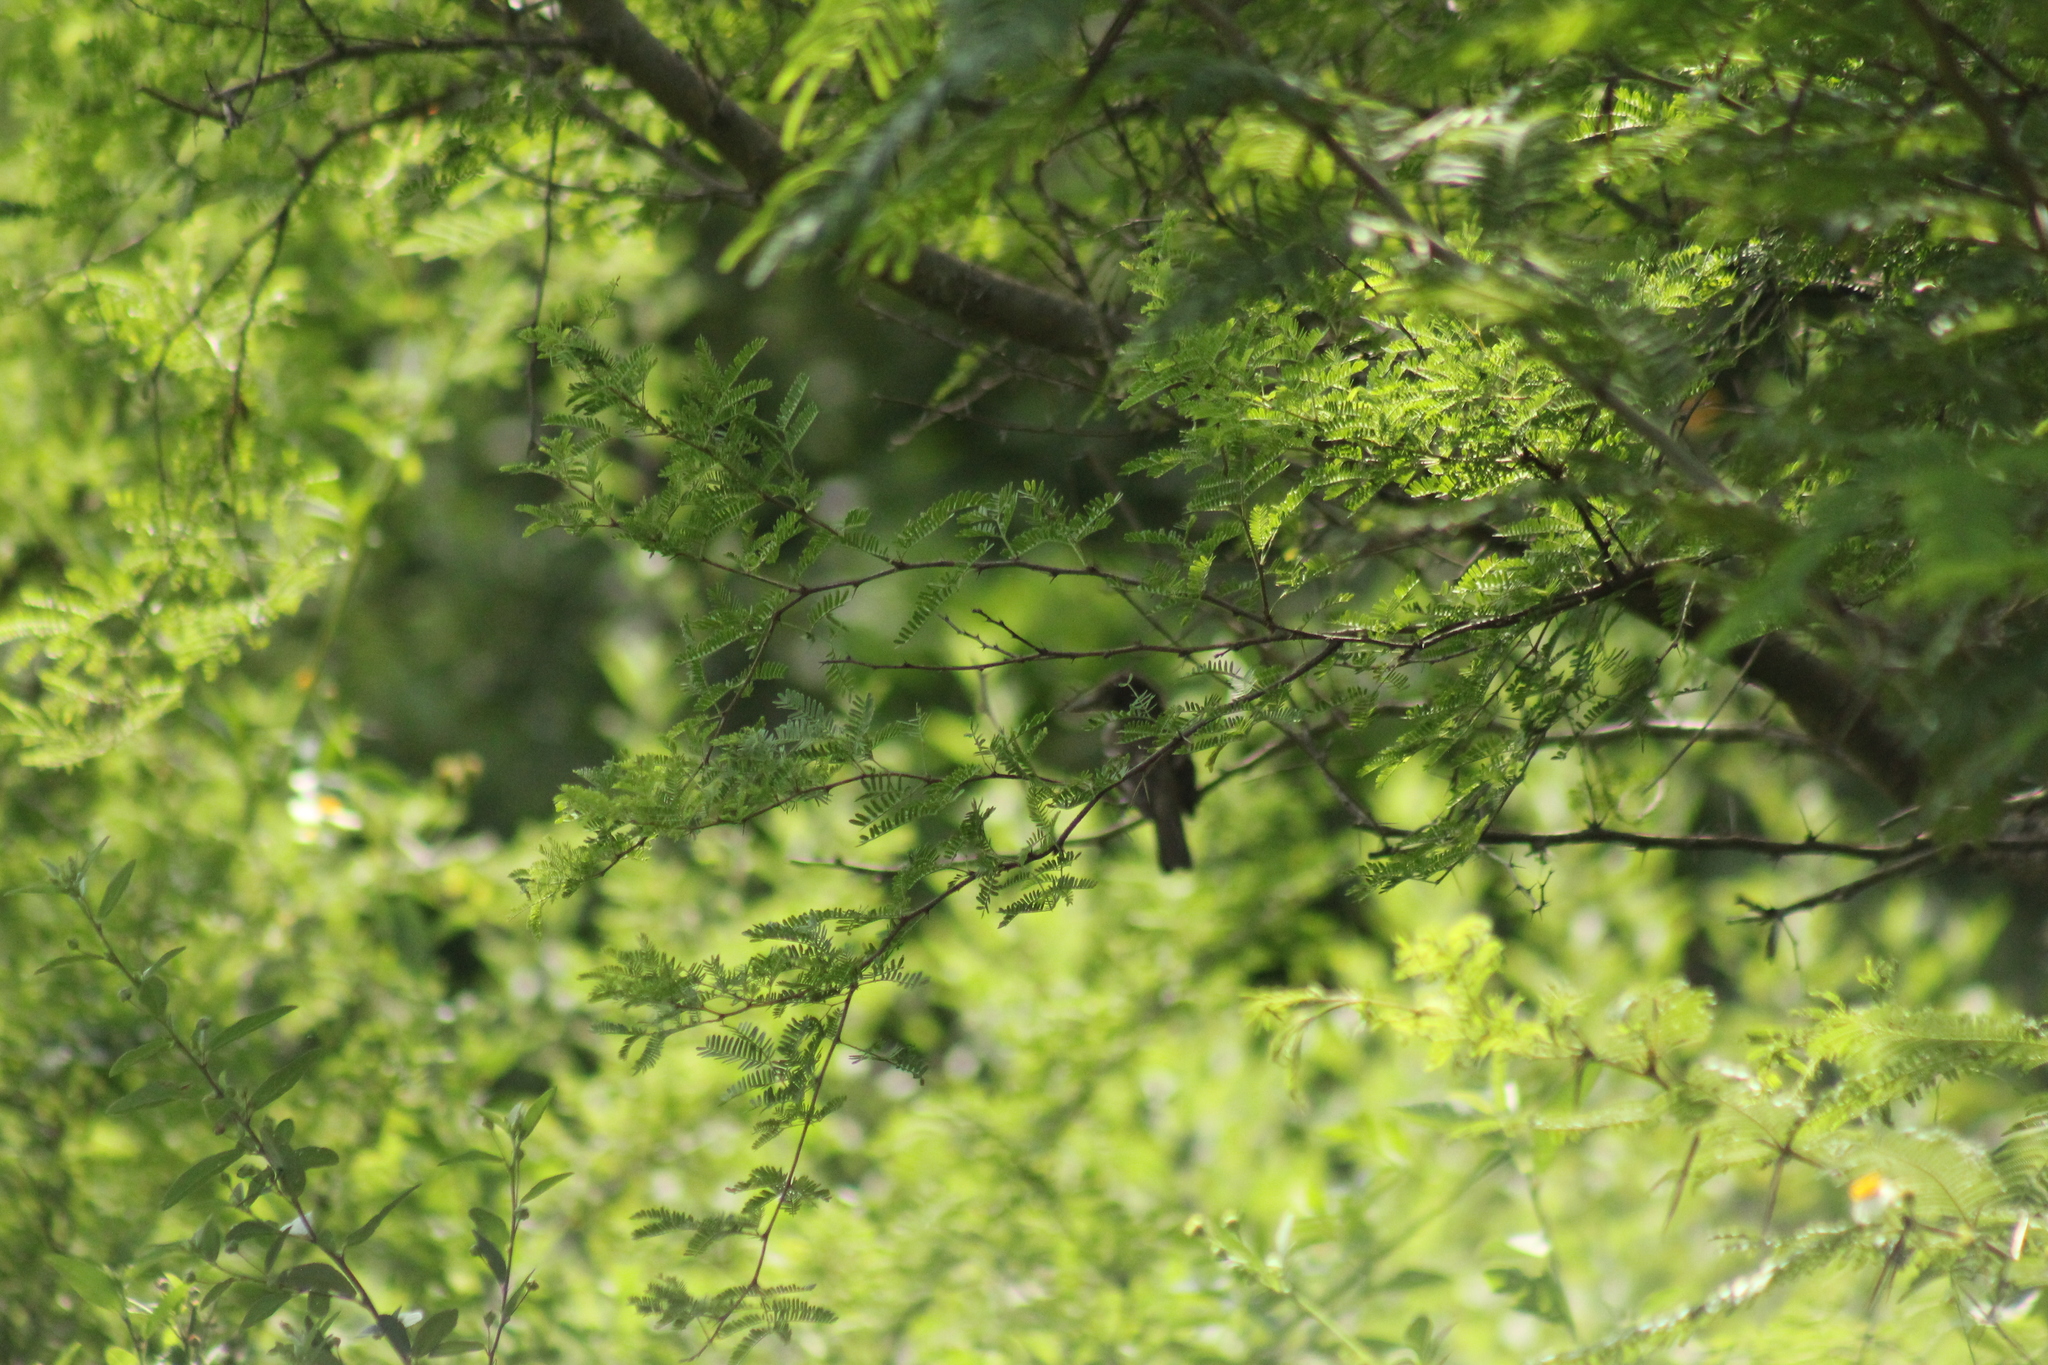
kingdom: Animalia
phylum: Chordata
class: Aves
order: Passeriformes
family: Tyrannidae
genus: Empidonax
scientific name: Empidonax
